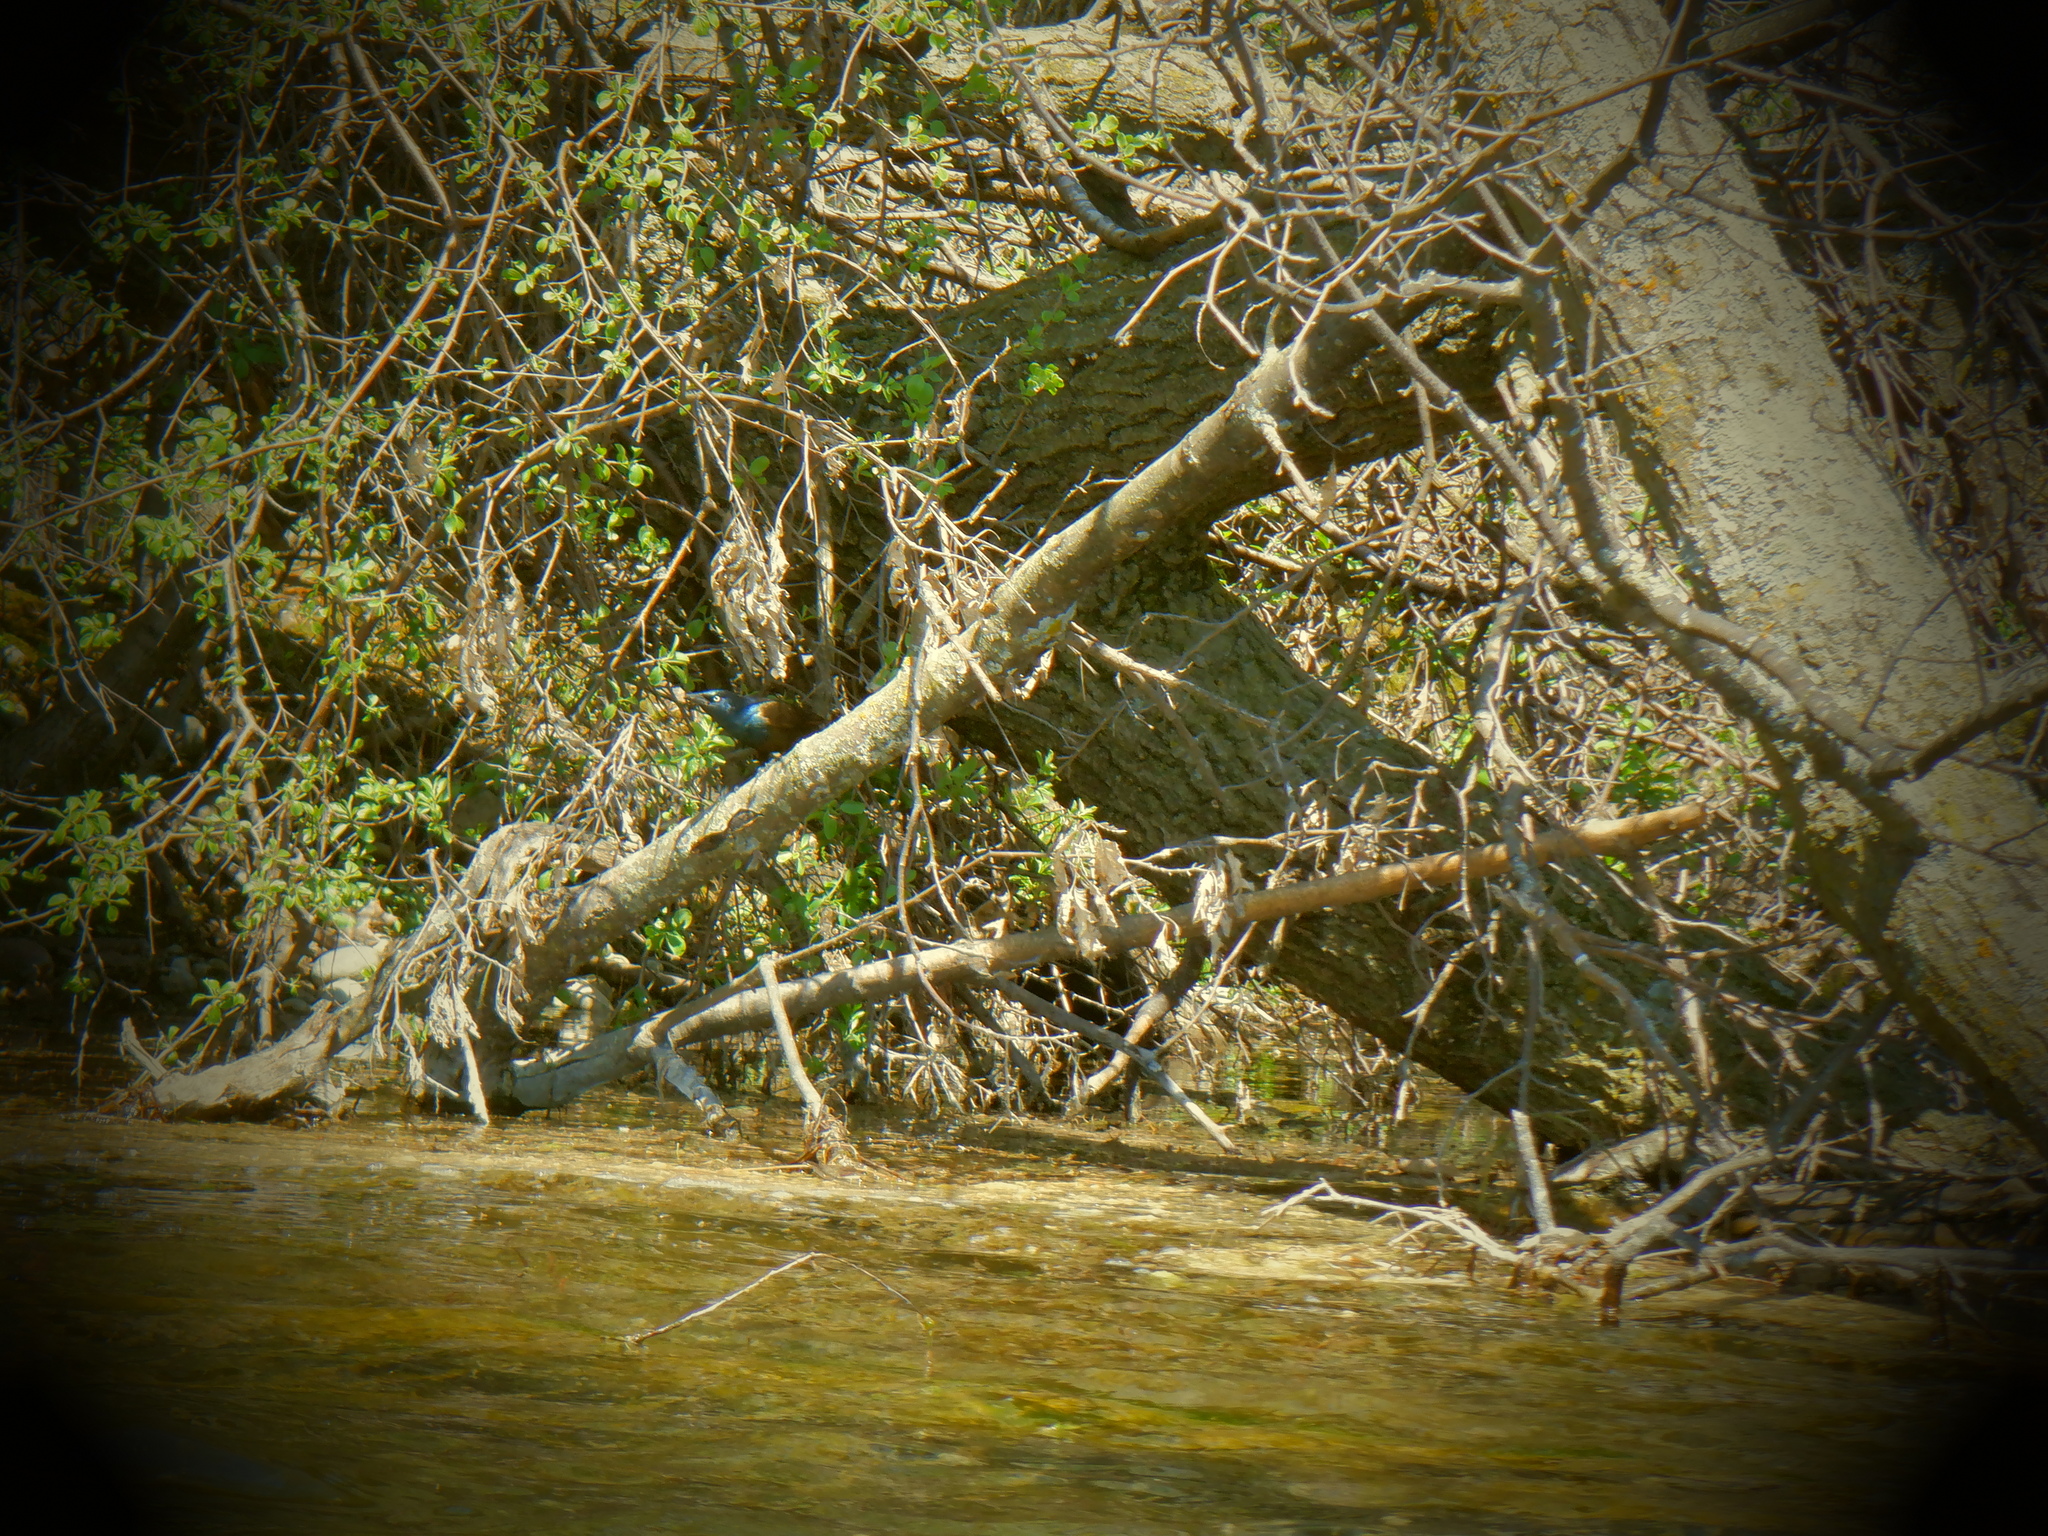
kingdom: Animalia
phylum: Chordata
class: Aves
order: Passeriformes
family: Icteridae
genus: Quiscalus
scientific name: Quiscalus quiscula
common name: Common grackle
